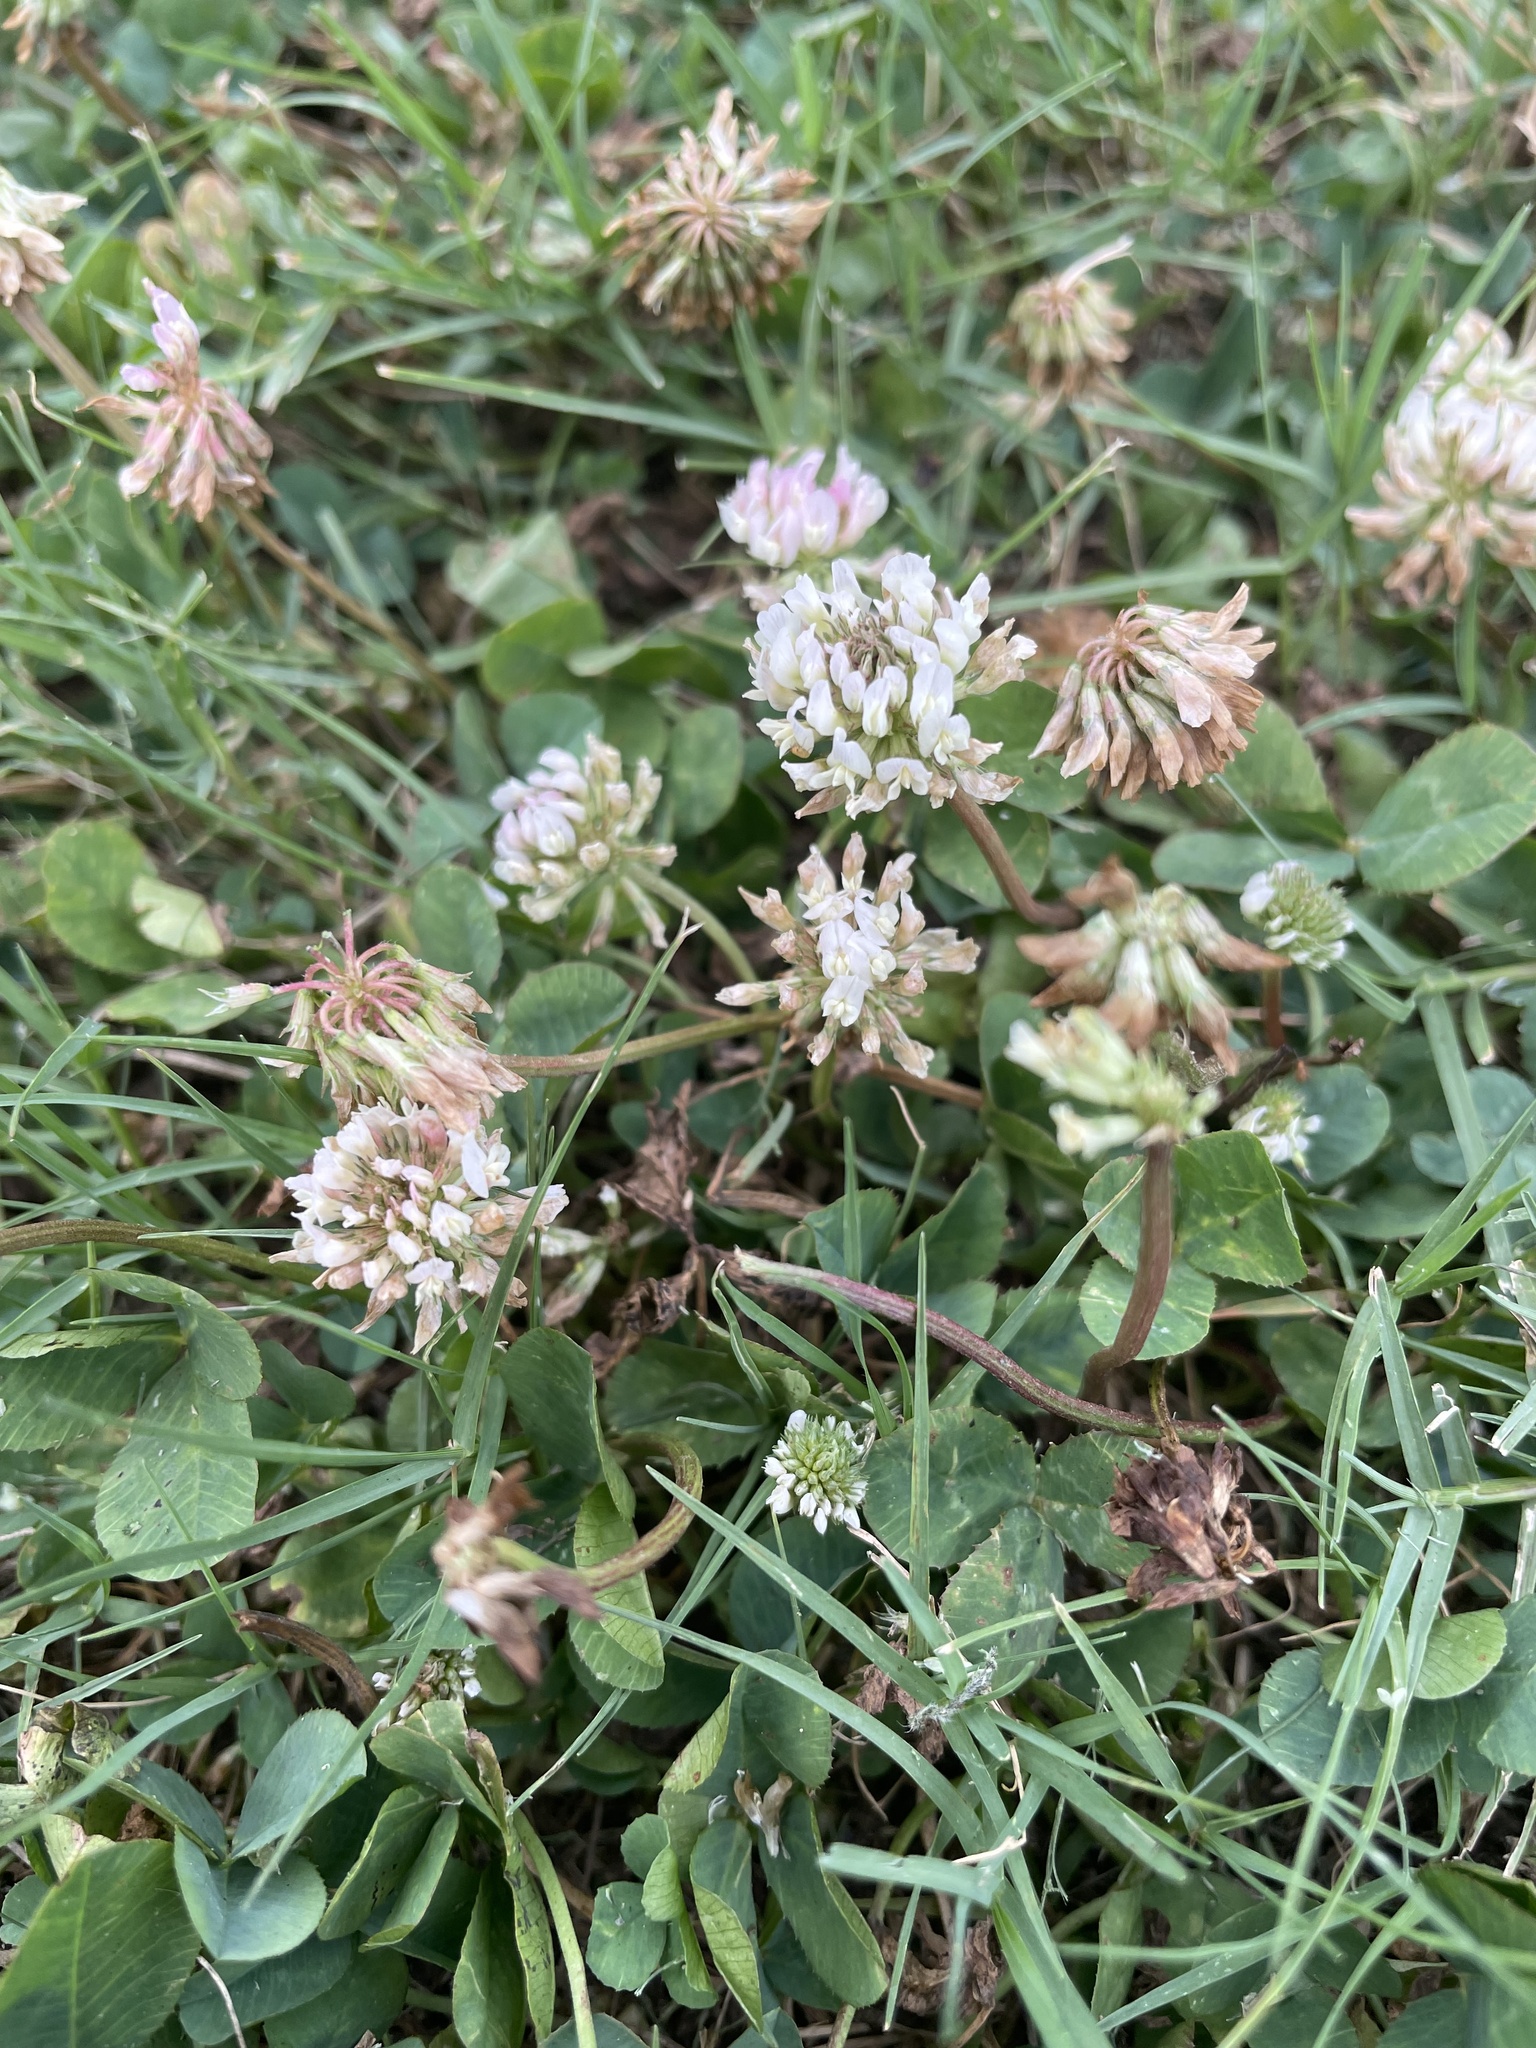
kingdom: Plantae
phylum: Tracheophyta
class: Magnoliopsida
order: Fabales
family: Fabaceae
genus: Trifolium
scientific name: Trifolium repens
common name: White clover
